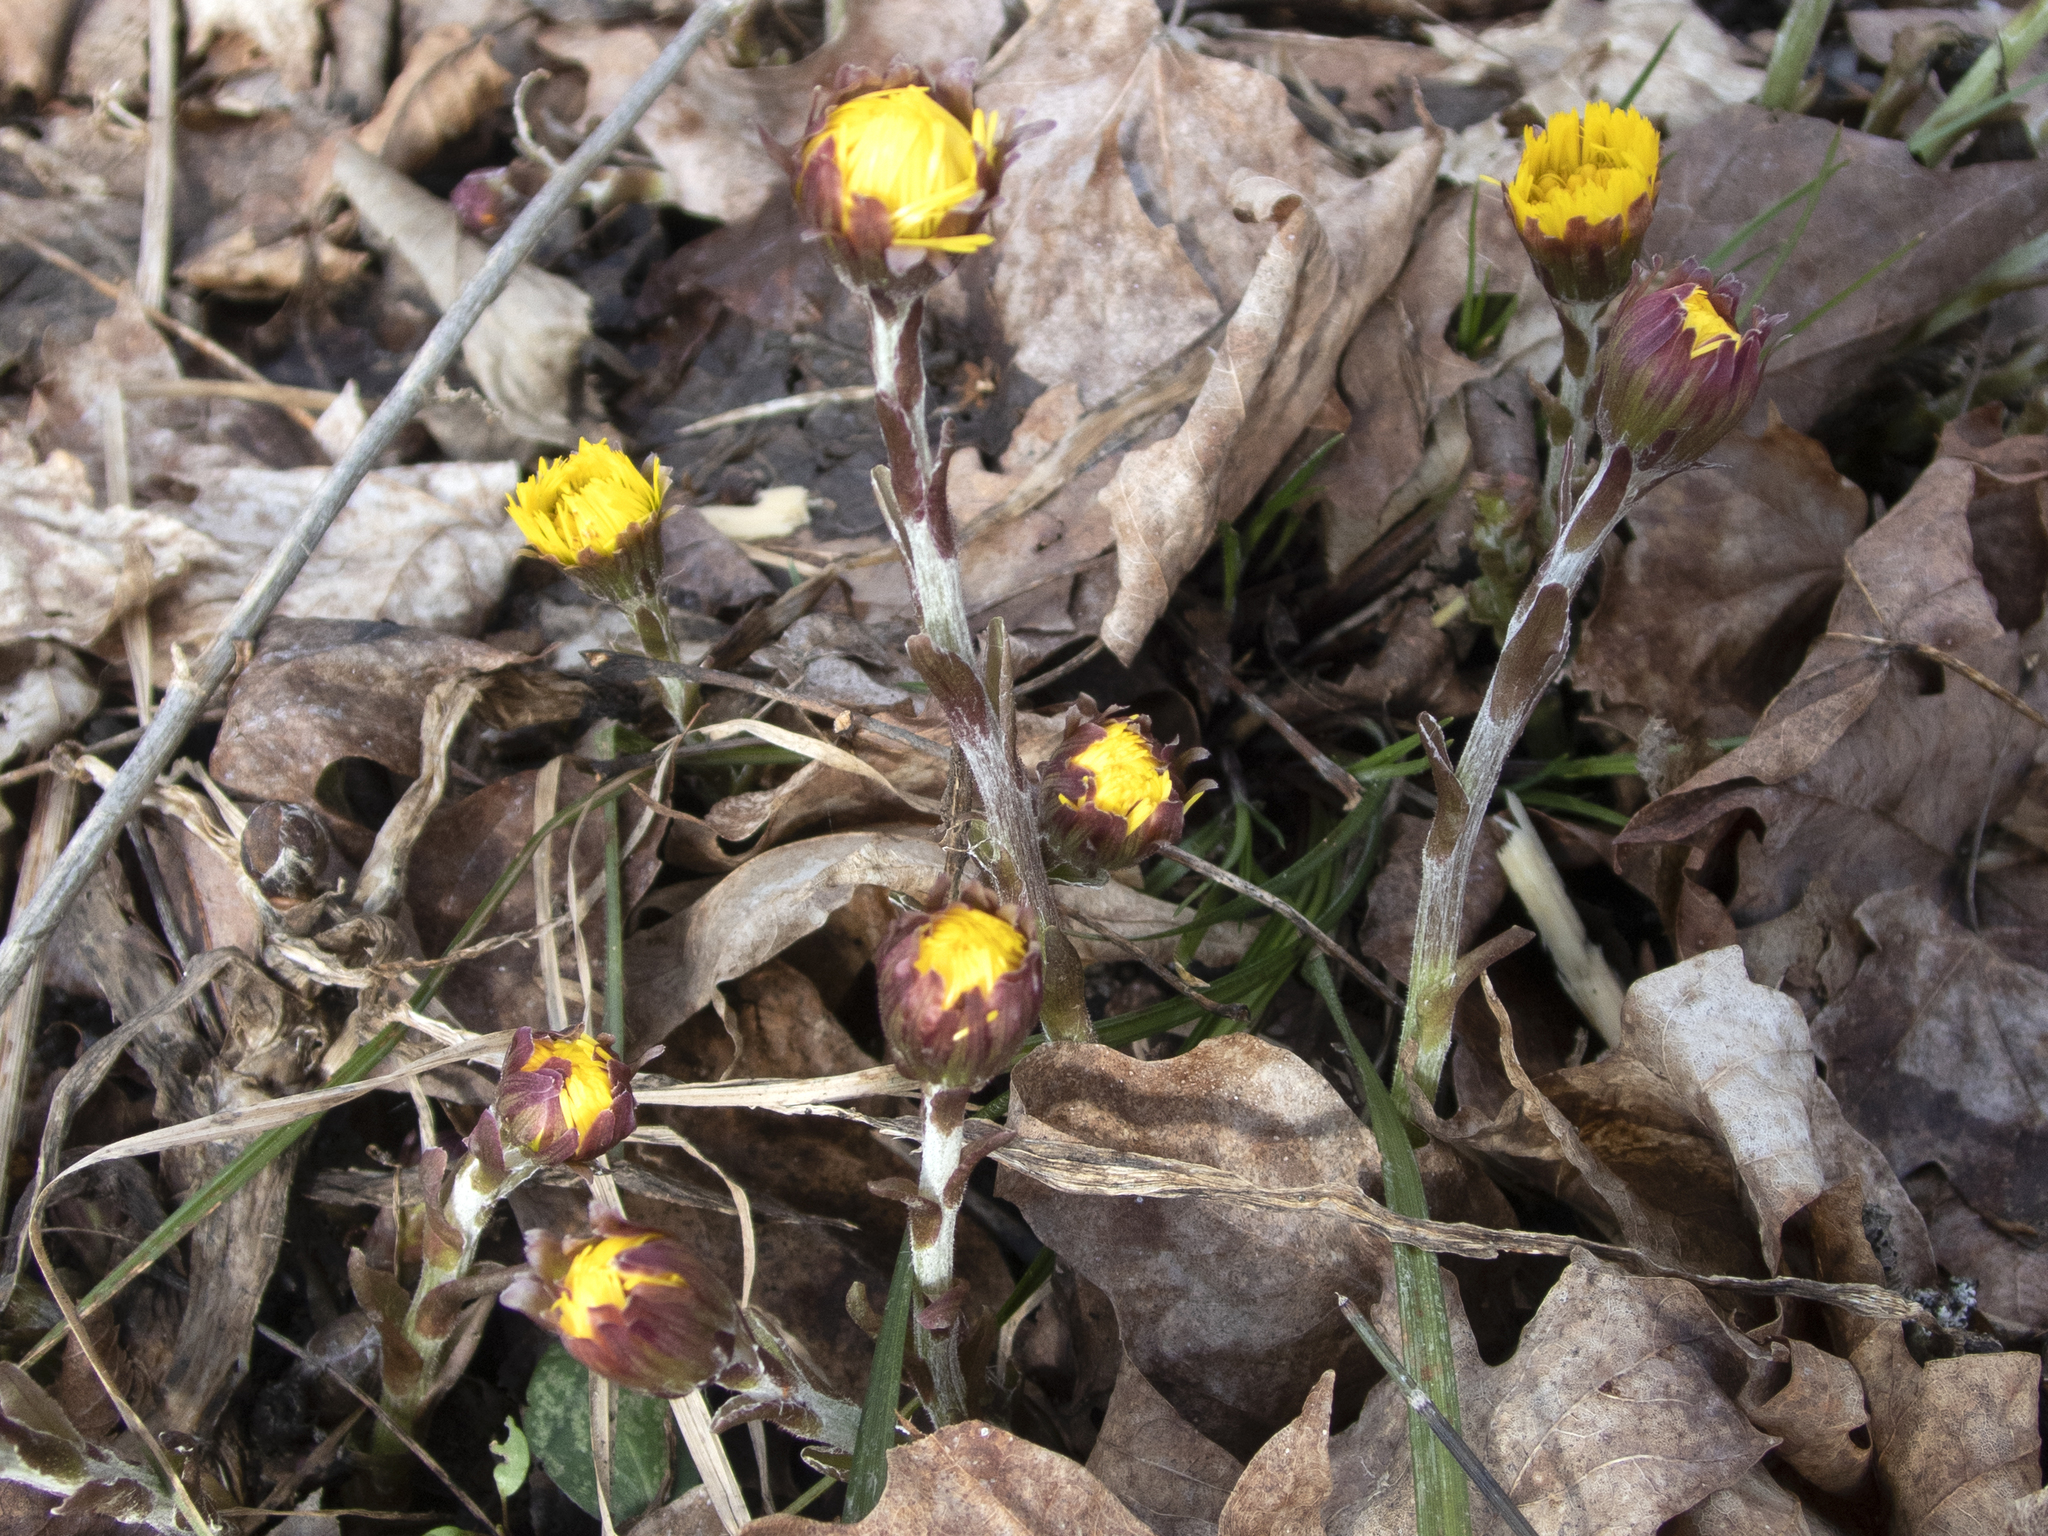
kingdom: Plantae
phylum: Tracheophyta
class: Magnoliopsida
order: Asterales
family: Asteraceae
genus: Tussilago
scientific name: Tussilago farfara
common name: Coltsfoot
